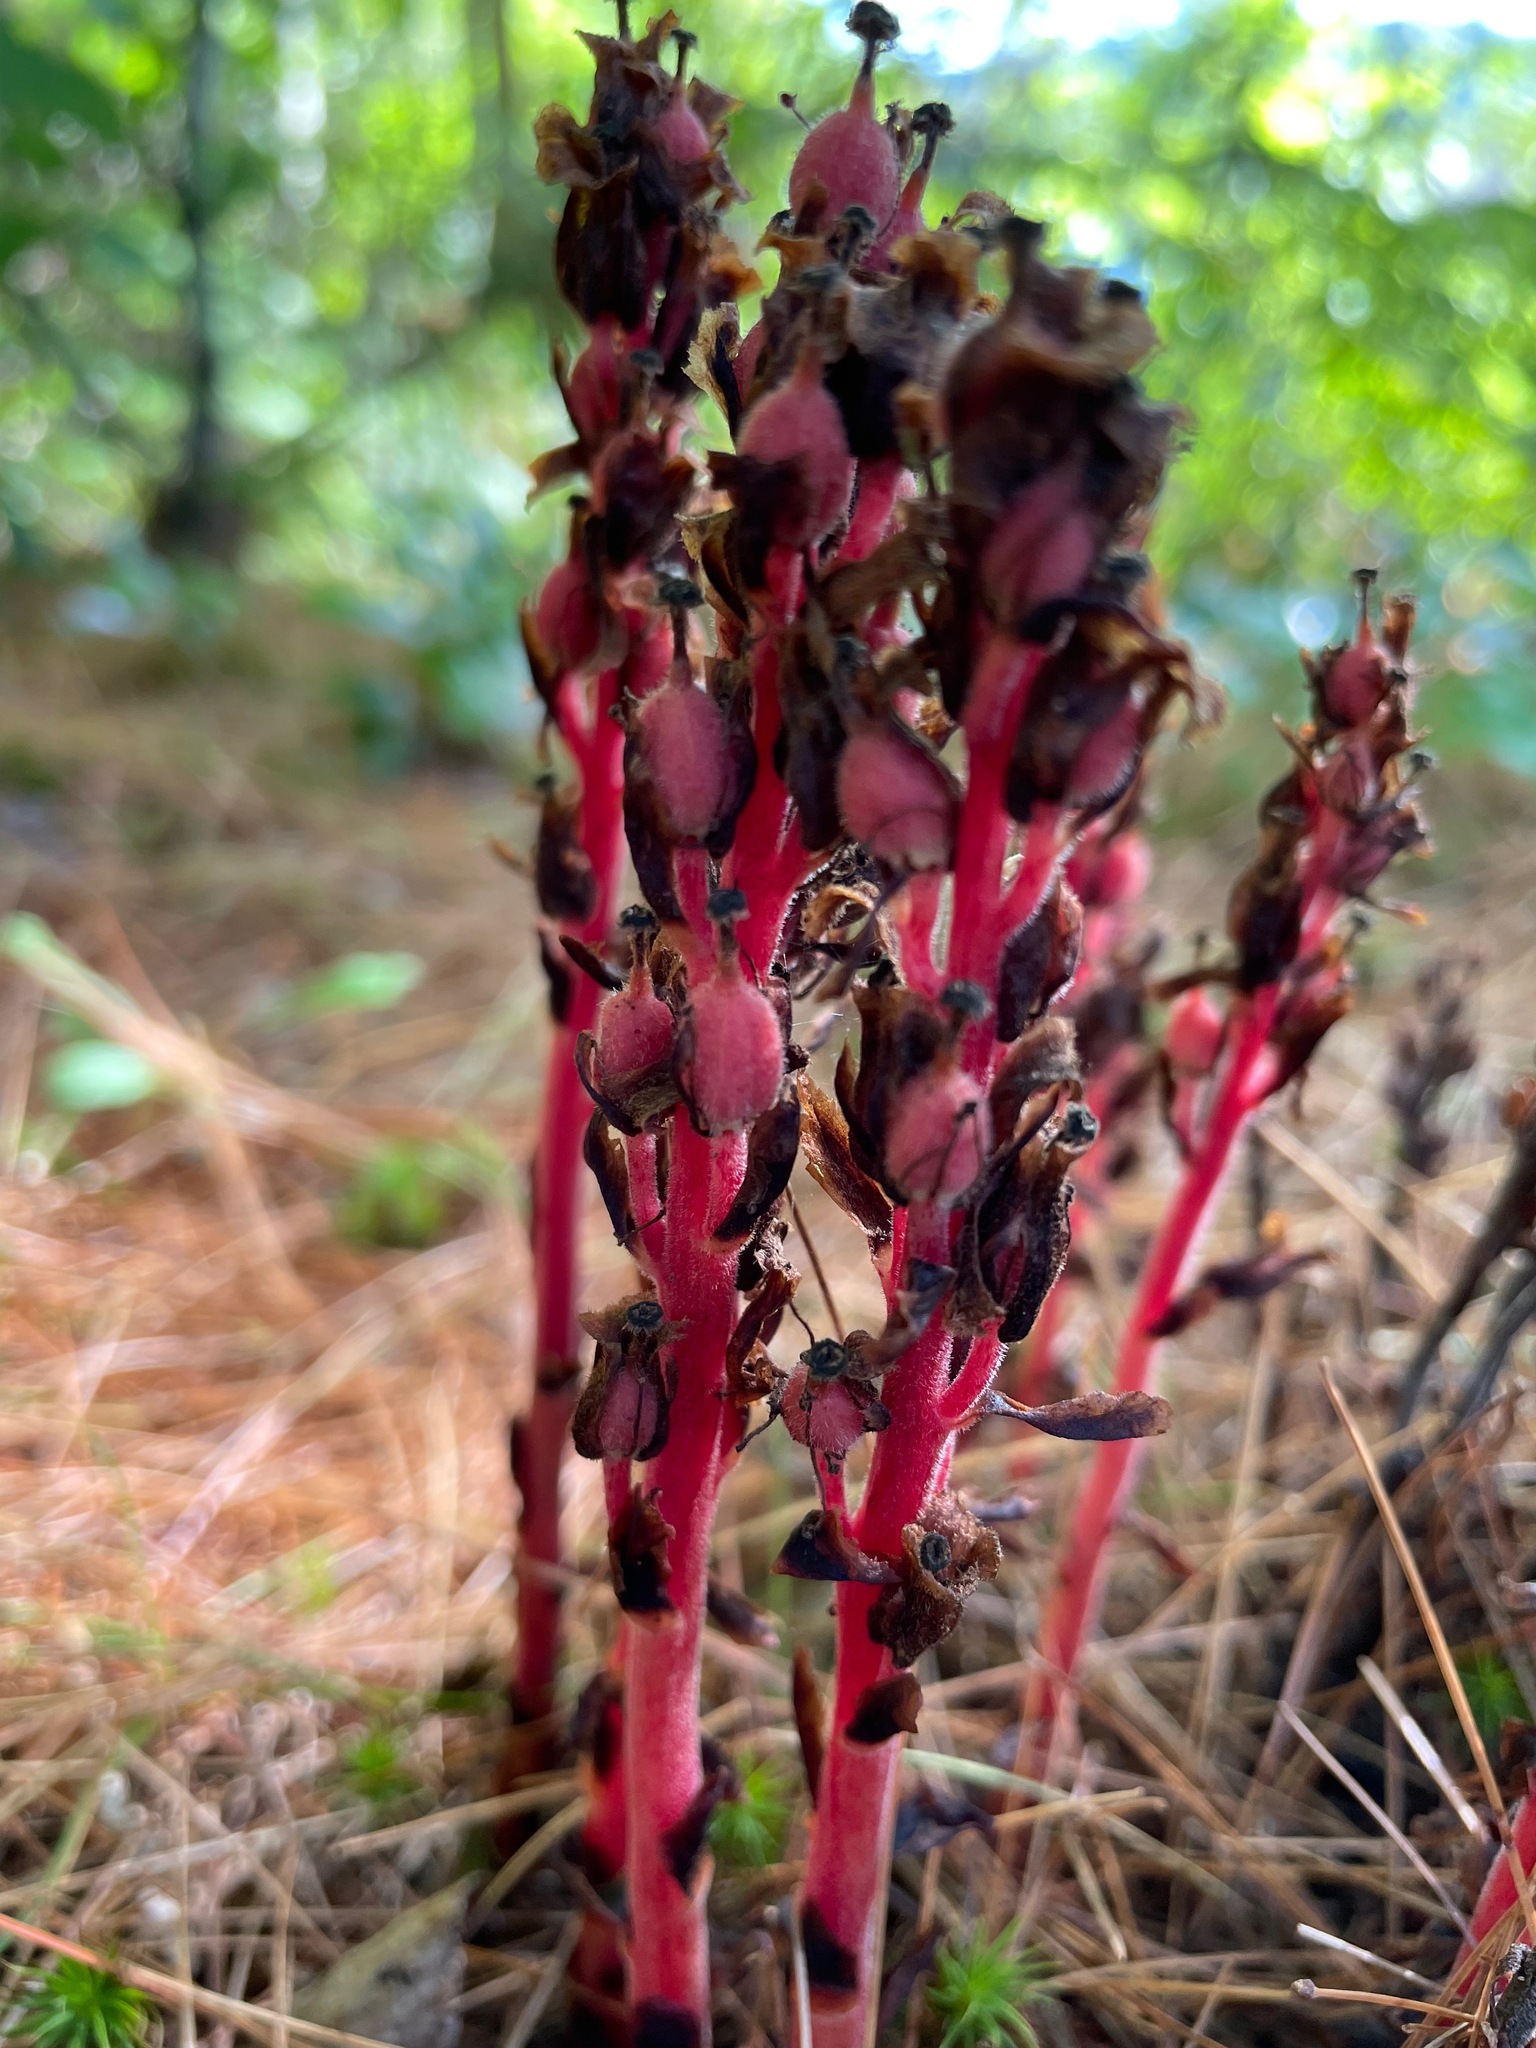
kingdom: Plantae
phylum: Tracheophyta
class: Magnoliopsida
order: Ericales
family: Ericaceae
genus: Hypopitys
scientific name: Hypopitys monotropa
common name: Yellow bird's-nest
